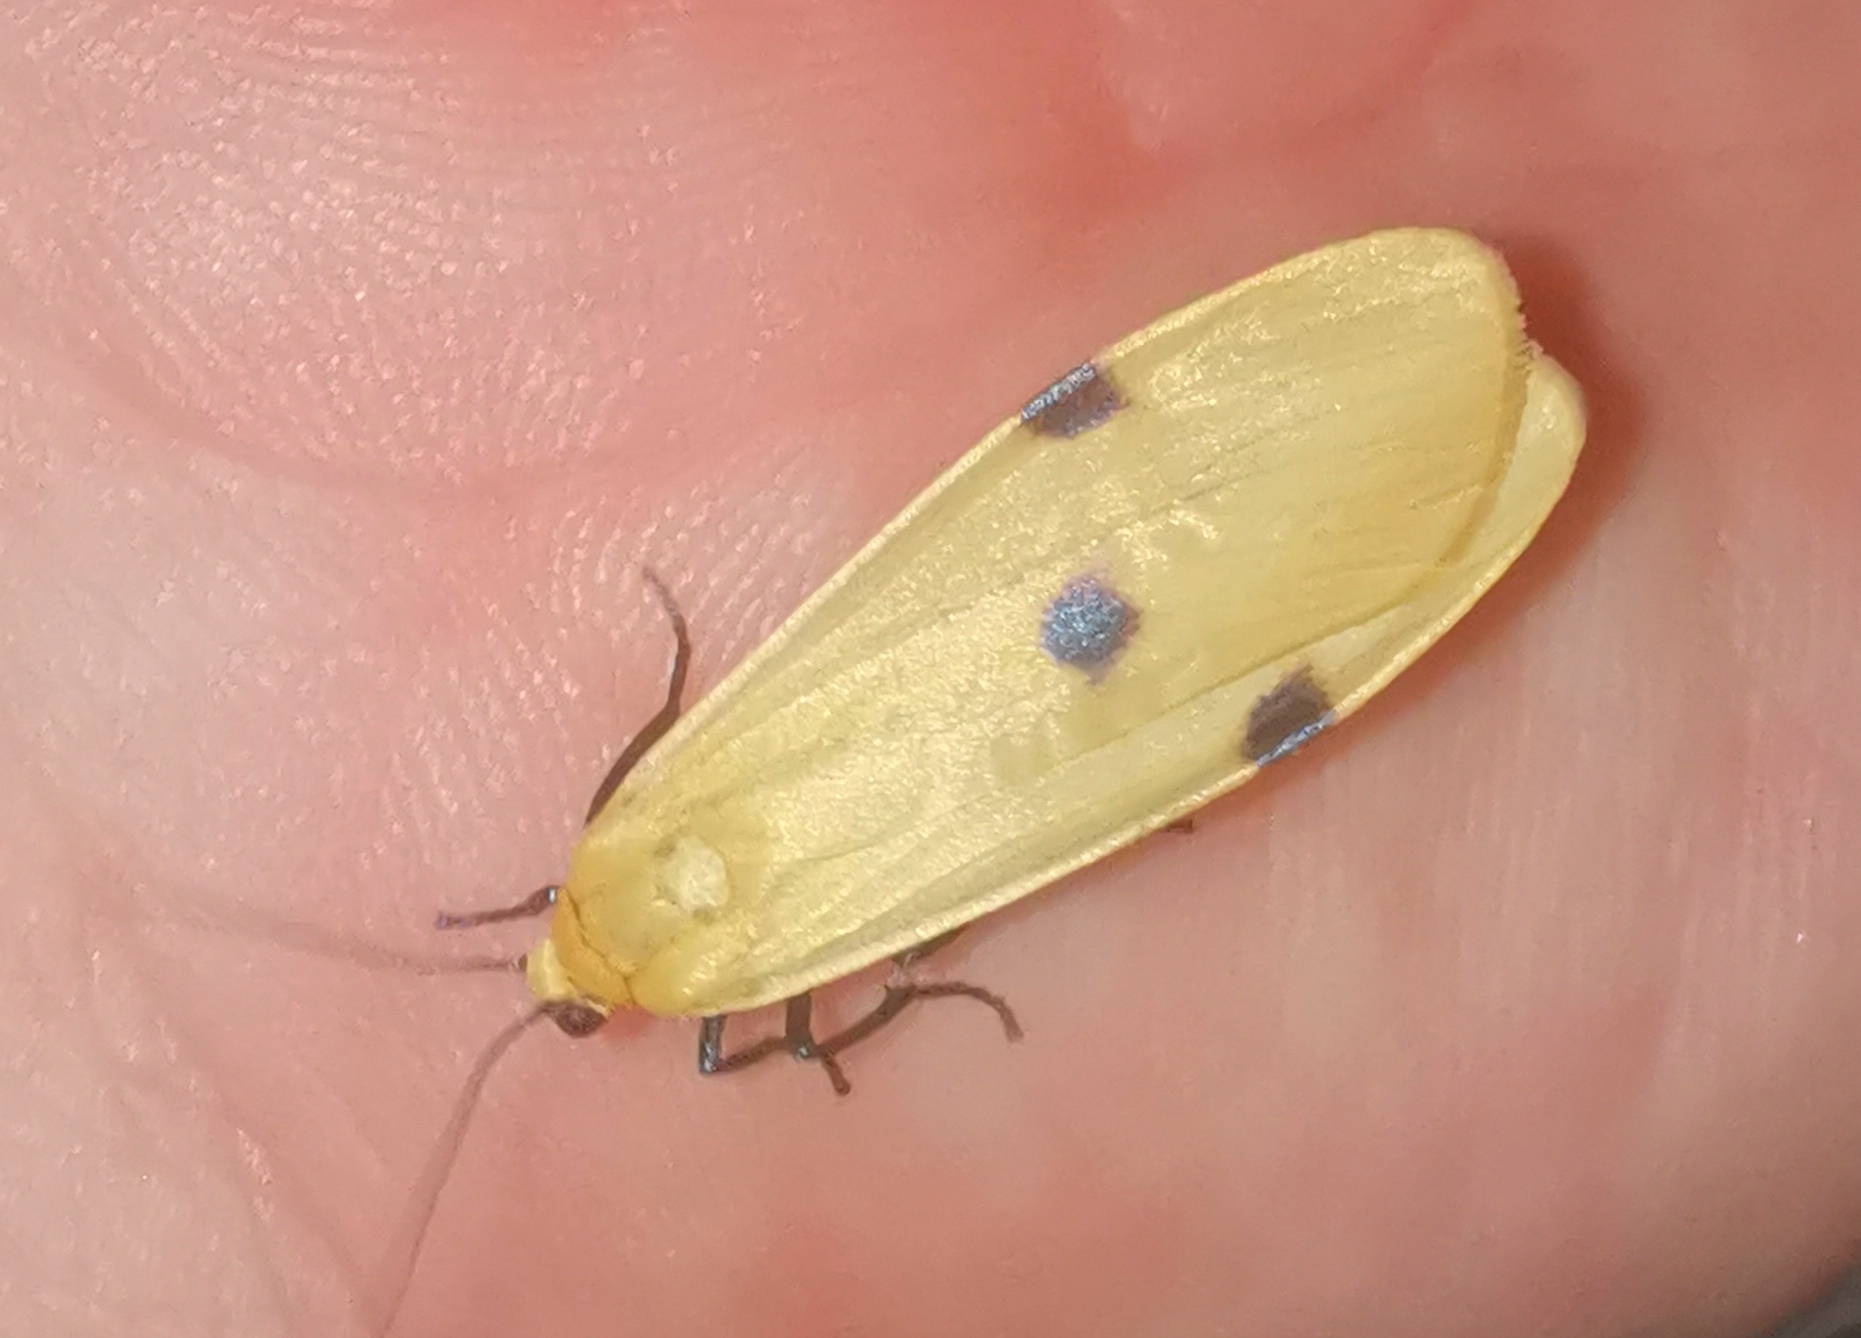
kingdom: Animalia
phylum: Arthropoda
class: Insecta
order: Lepidoptera
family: Erebidae
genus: Lithosia
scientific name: Lithosia quadra
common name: Four-spotted footman
